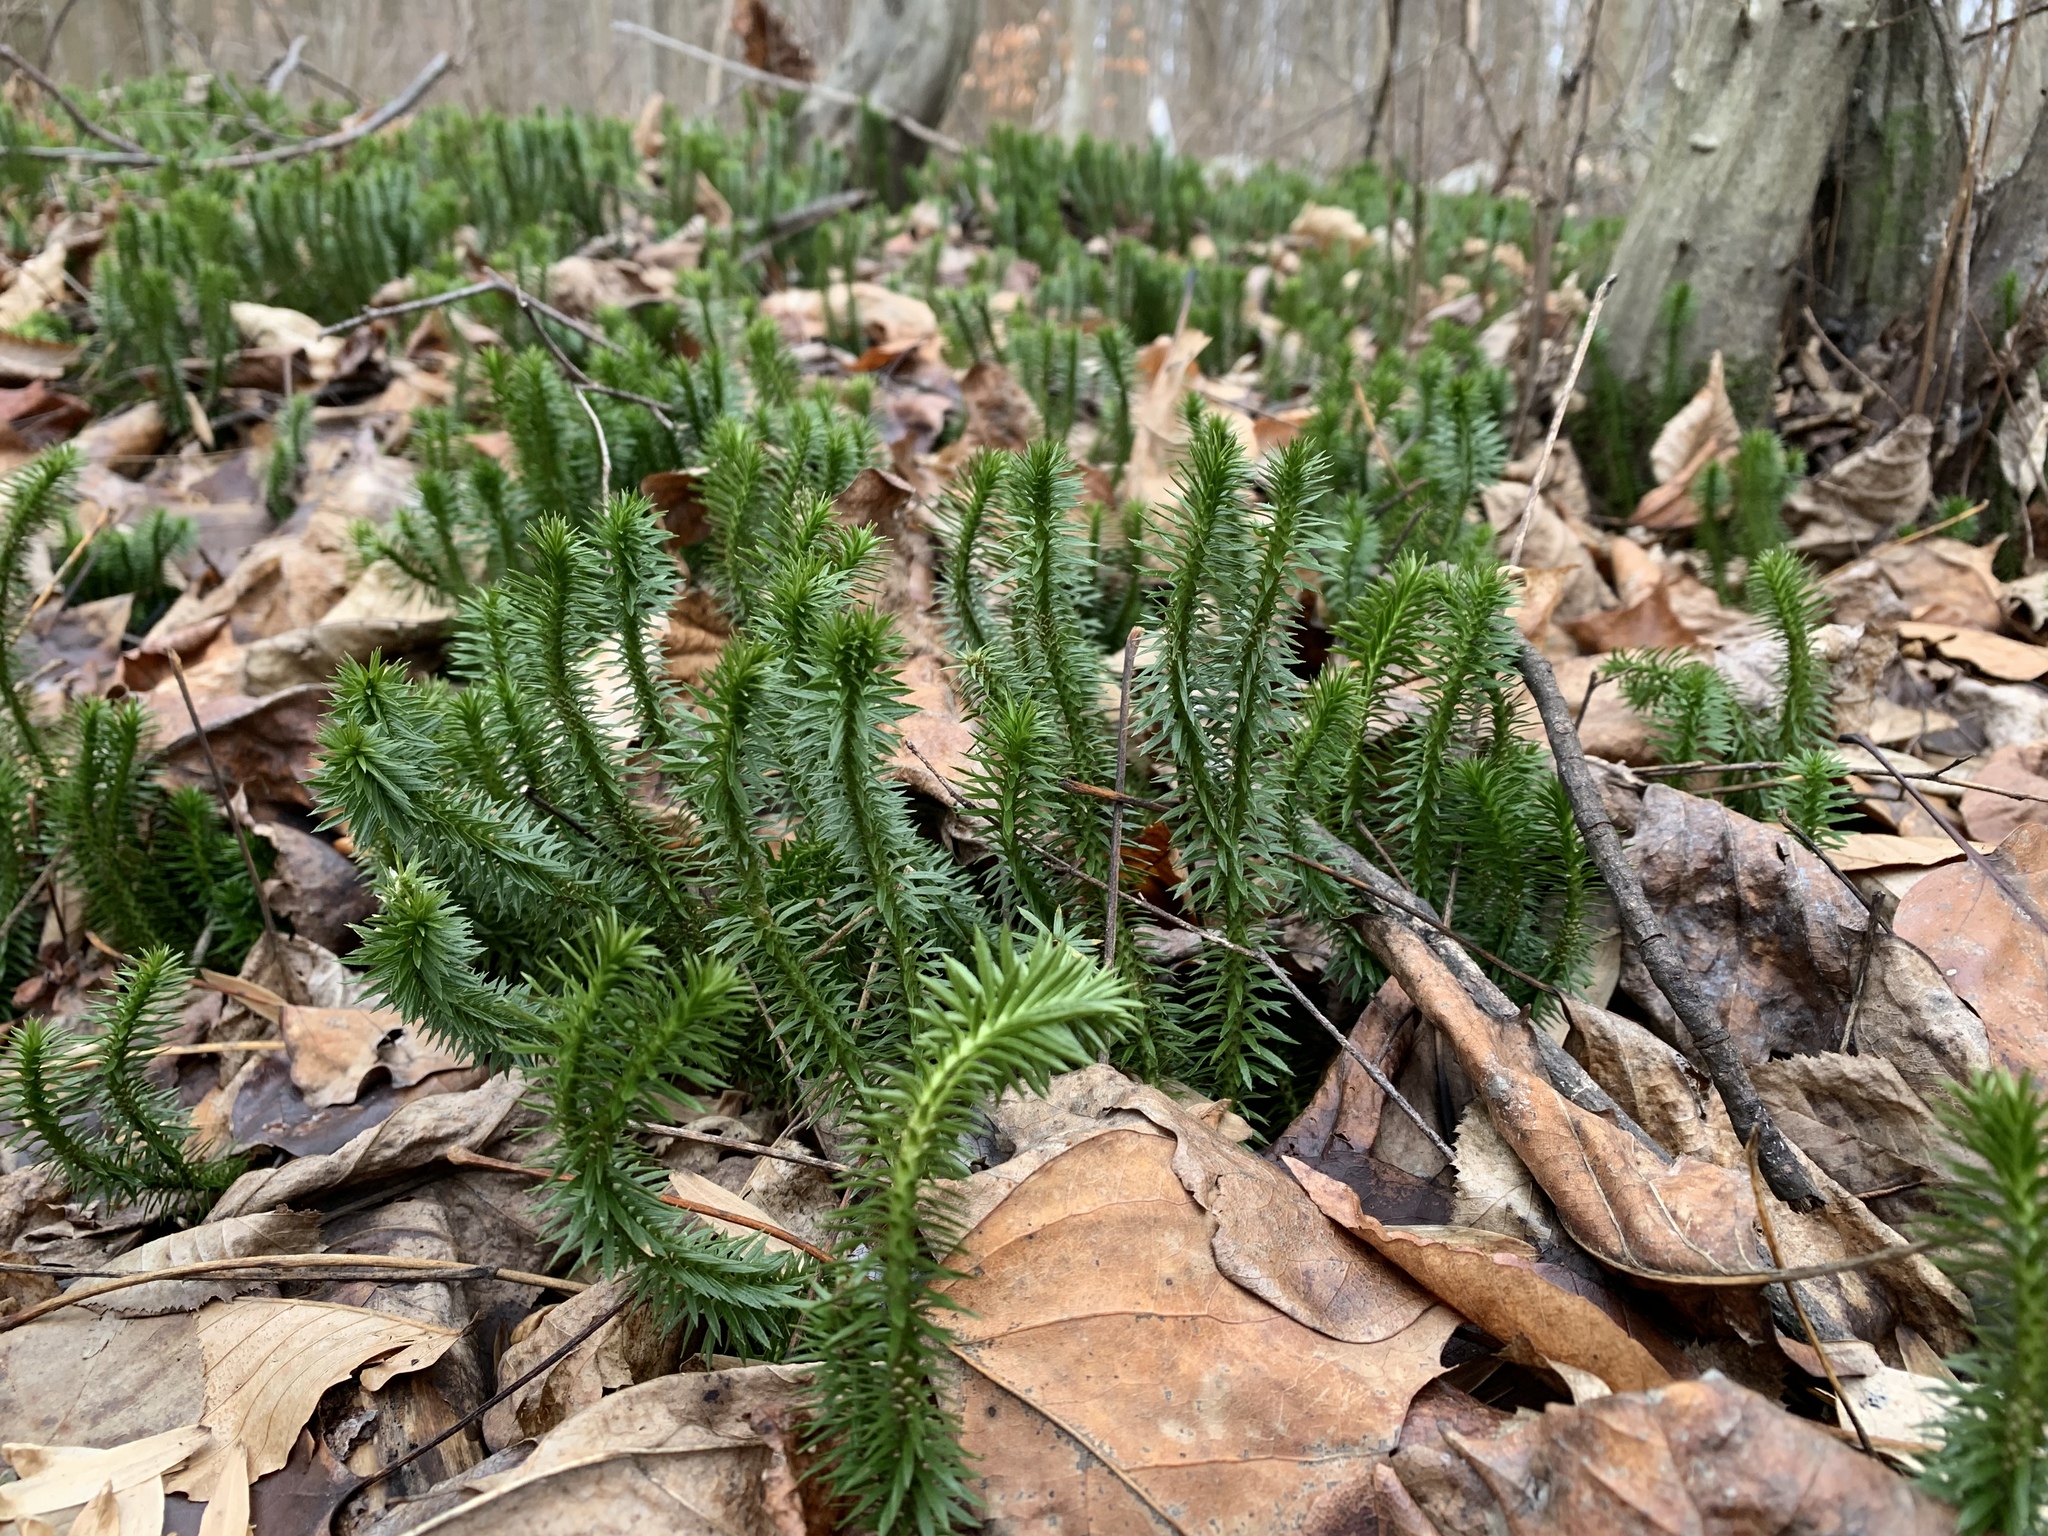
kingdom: Plantae
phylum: Tracheophyta
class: Lycopodiopsida
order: Lycopodiales
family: Lycopodiaceae
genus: Huperzia
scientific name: Huperzia lucidula
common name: Shining clubmoss
